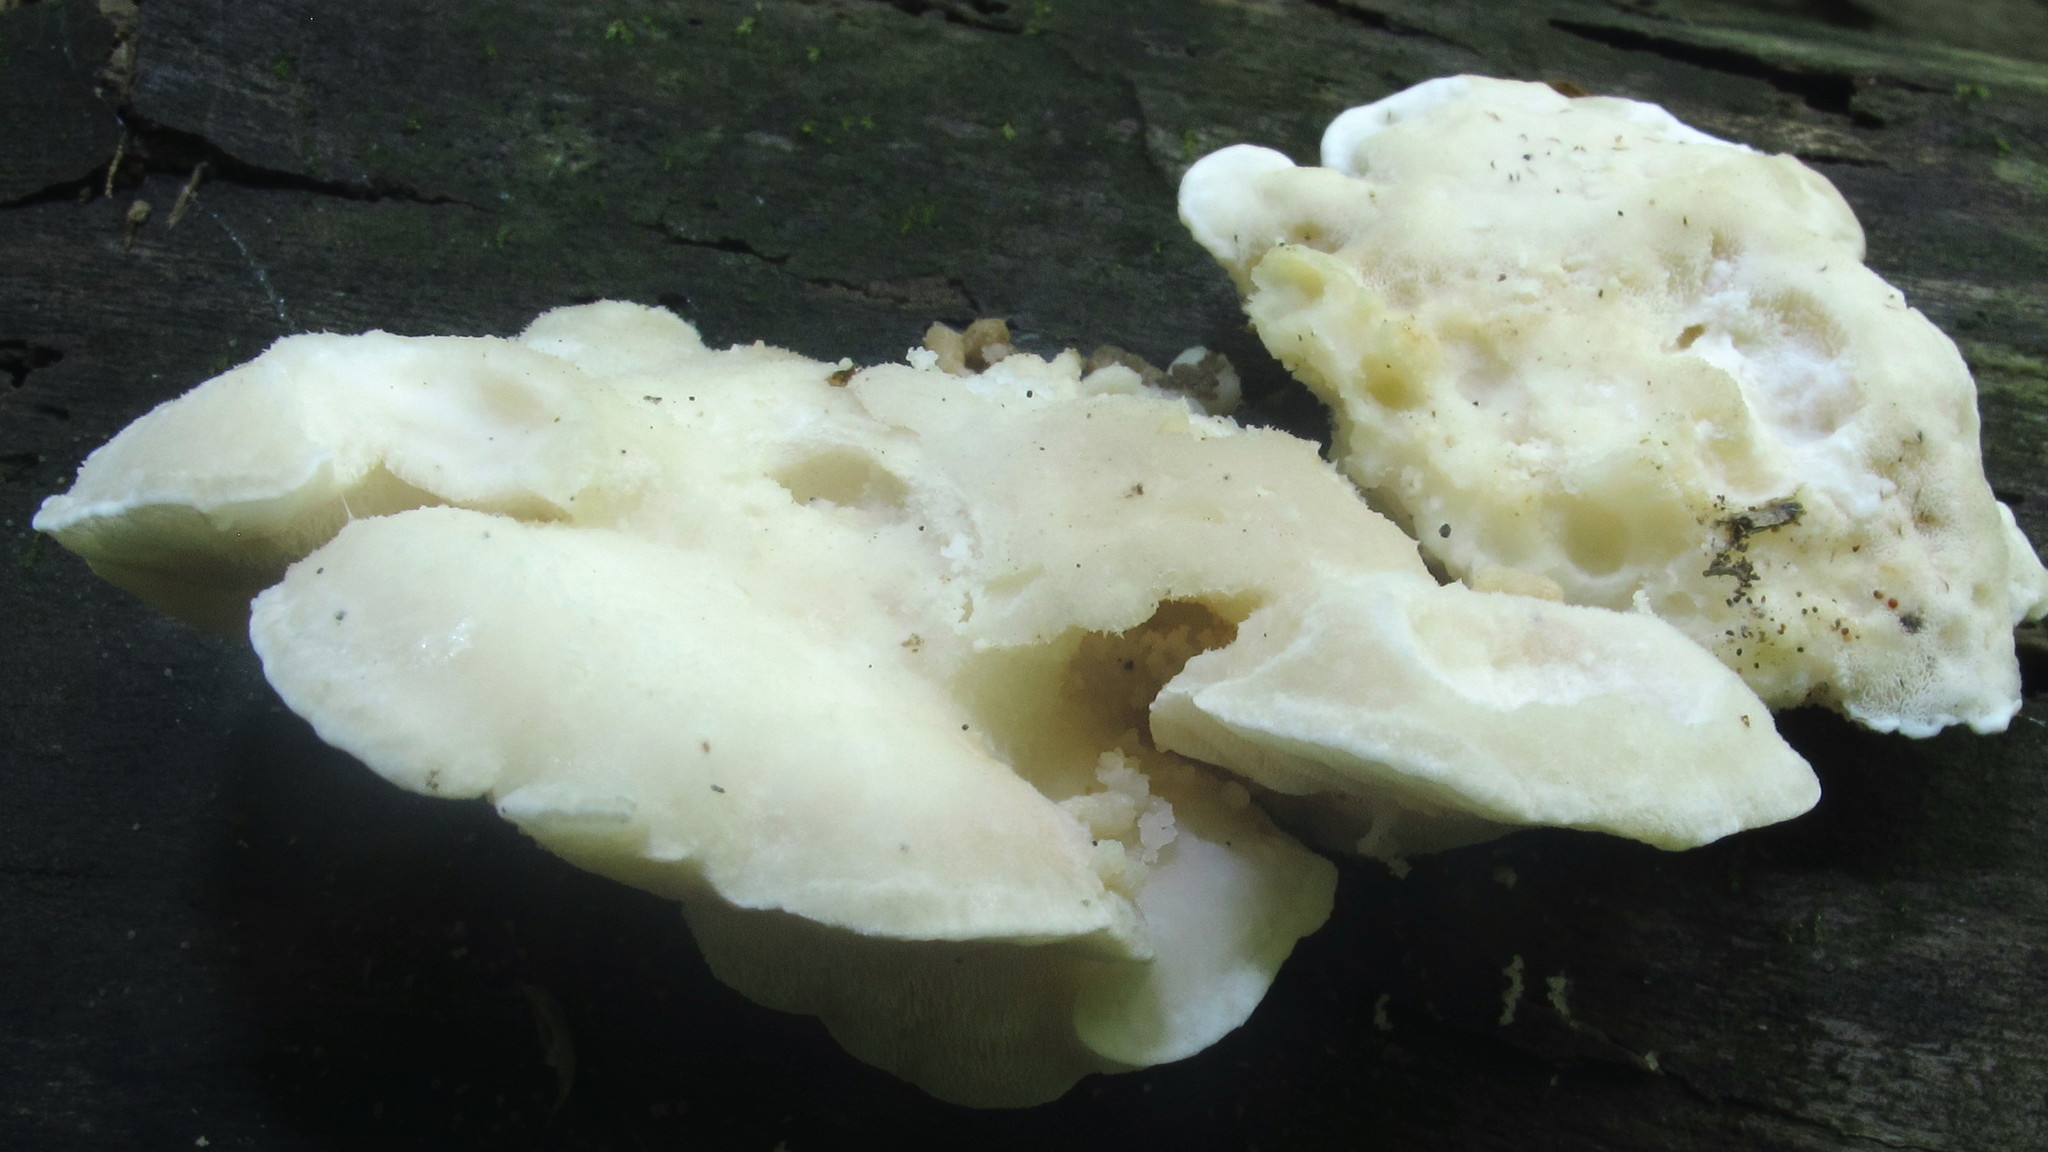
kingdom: Fungi
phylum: Basidiomycota
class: Agaricomycetes
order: Polyporales
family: Incrustoporiaceae
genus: Tyromyces
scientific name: Tyromyces chioneus
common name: White cheese polypore
